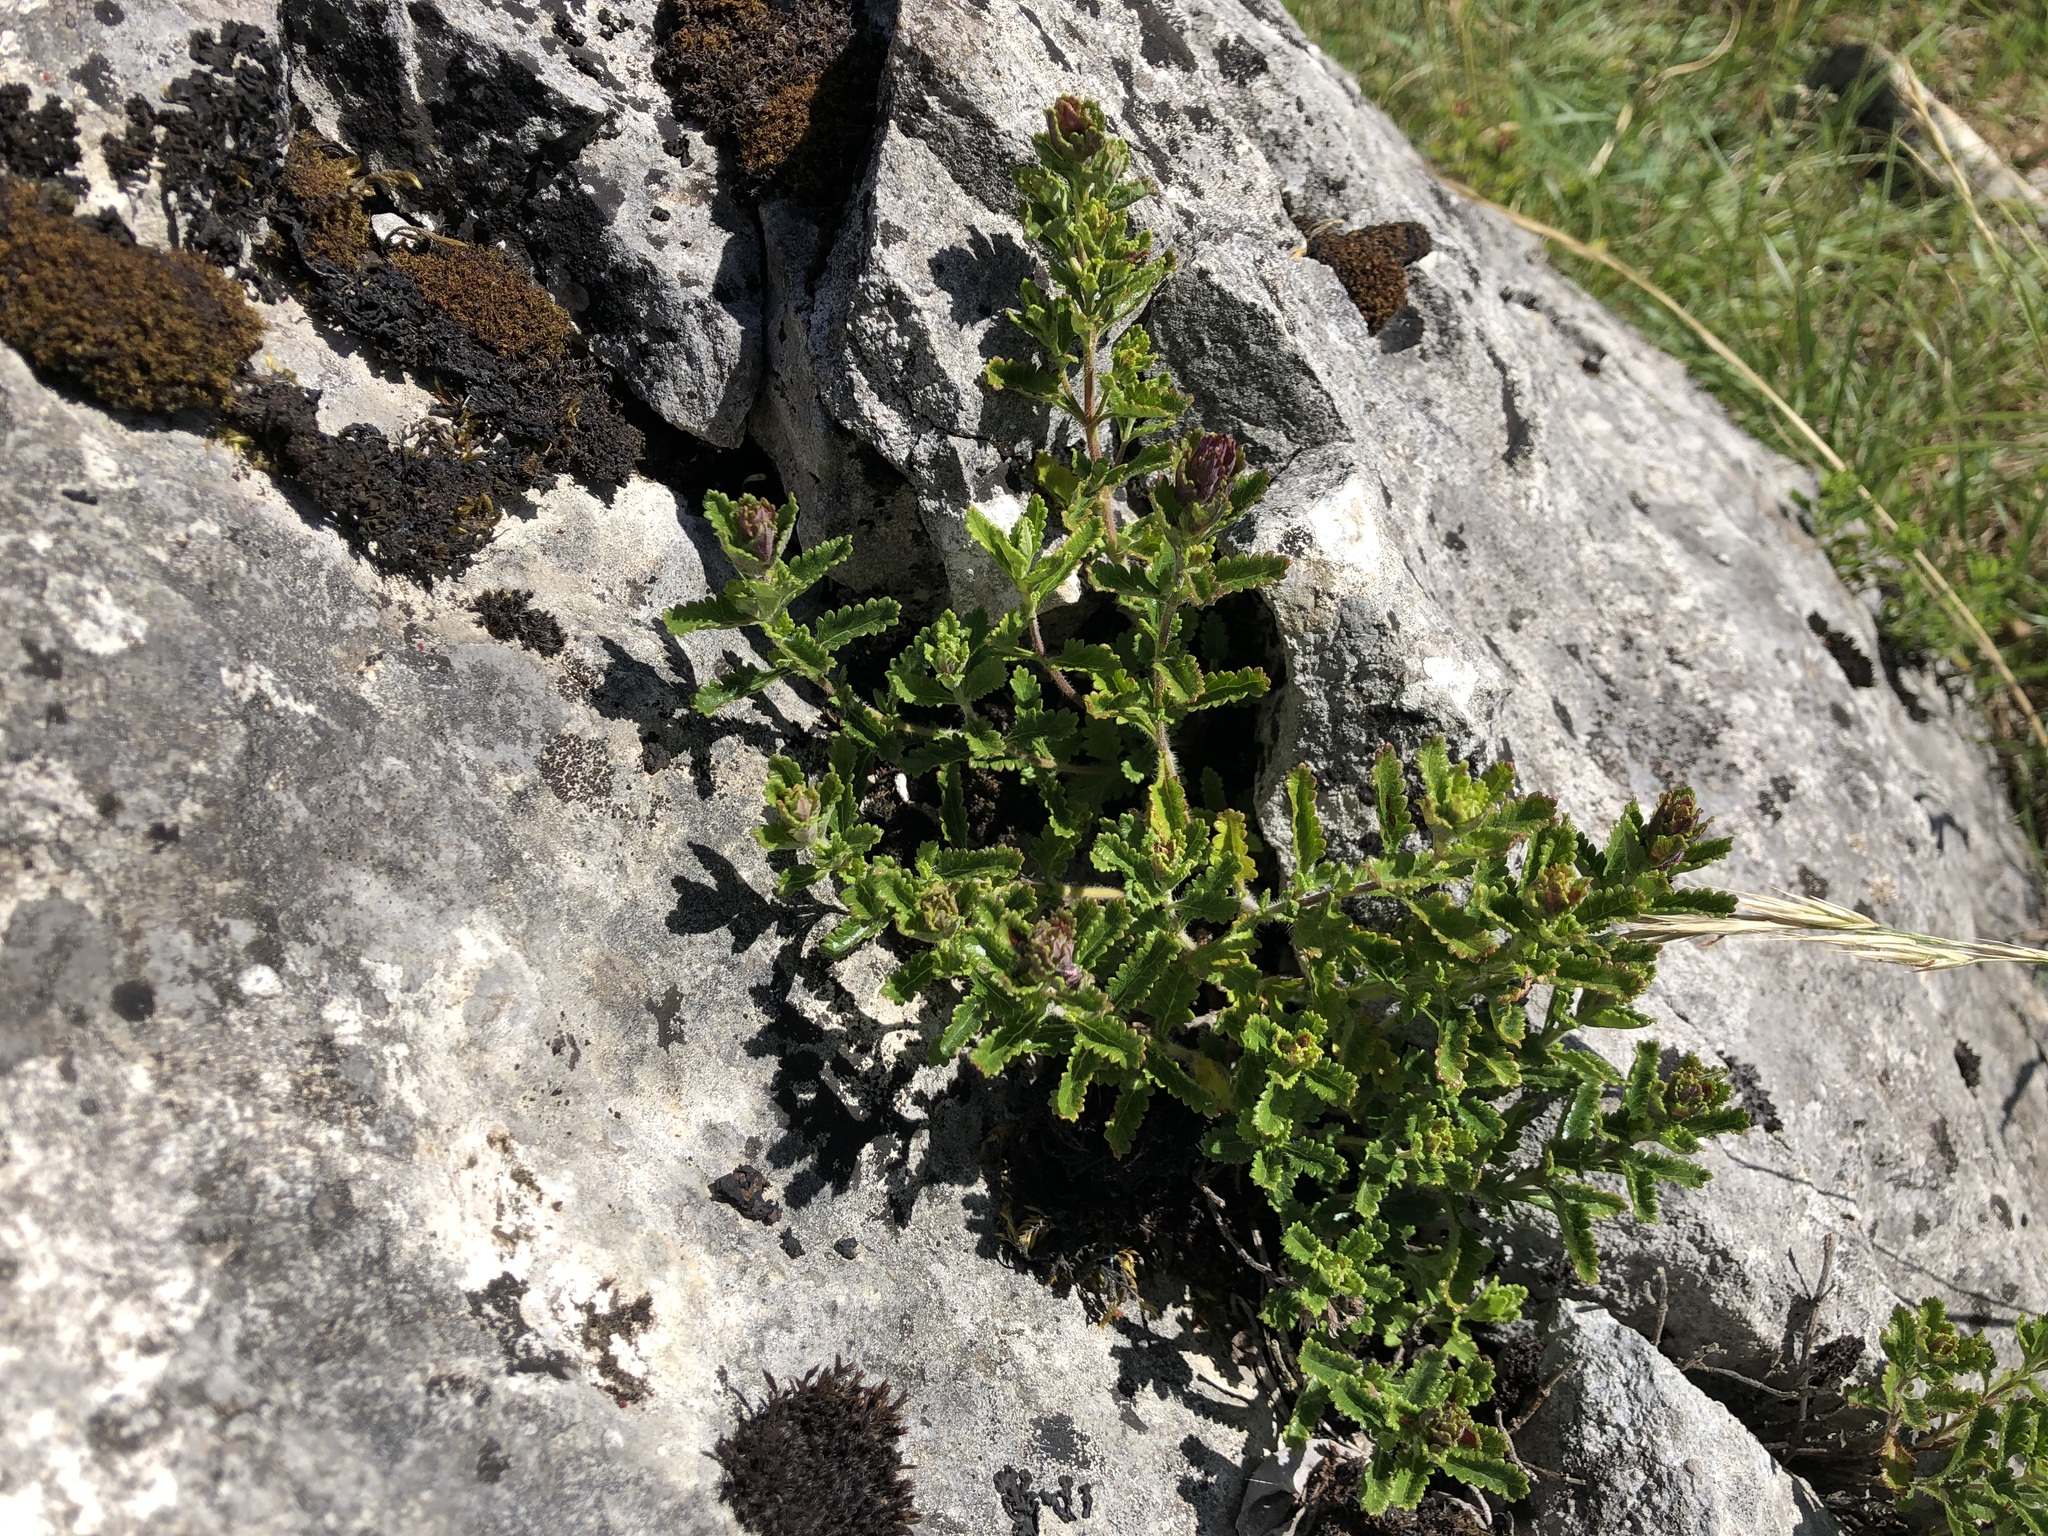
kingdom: Plantae
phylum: Tracheophyta
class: Magnoliopsida
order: Lamiales
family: Lamiaceae
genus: Teucrium
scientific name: Teucrium chamaedrys
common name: Wall germander
